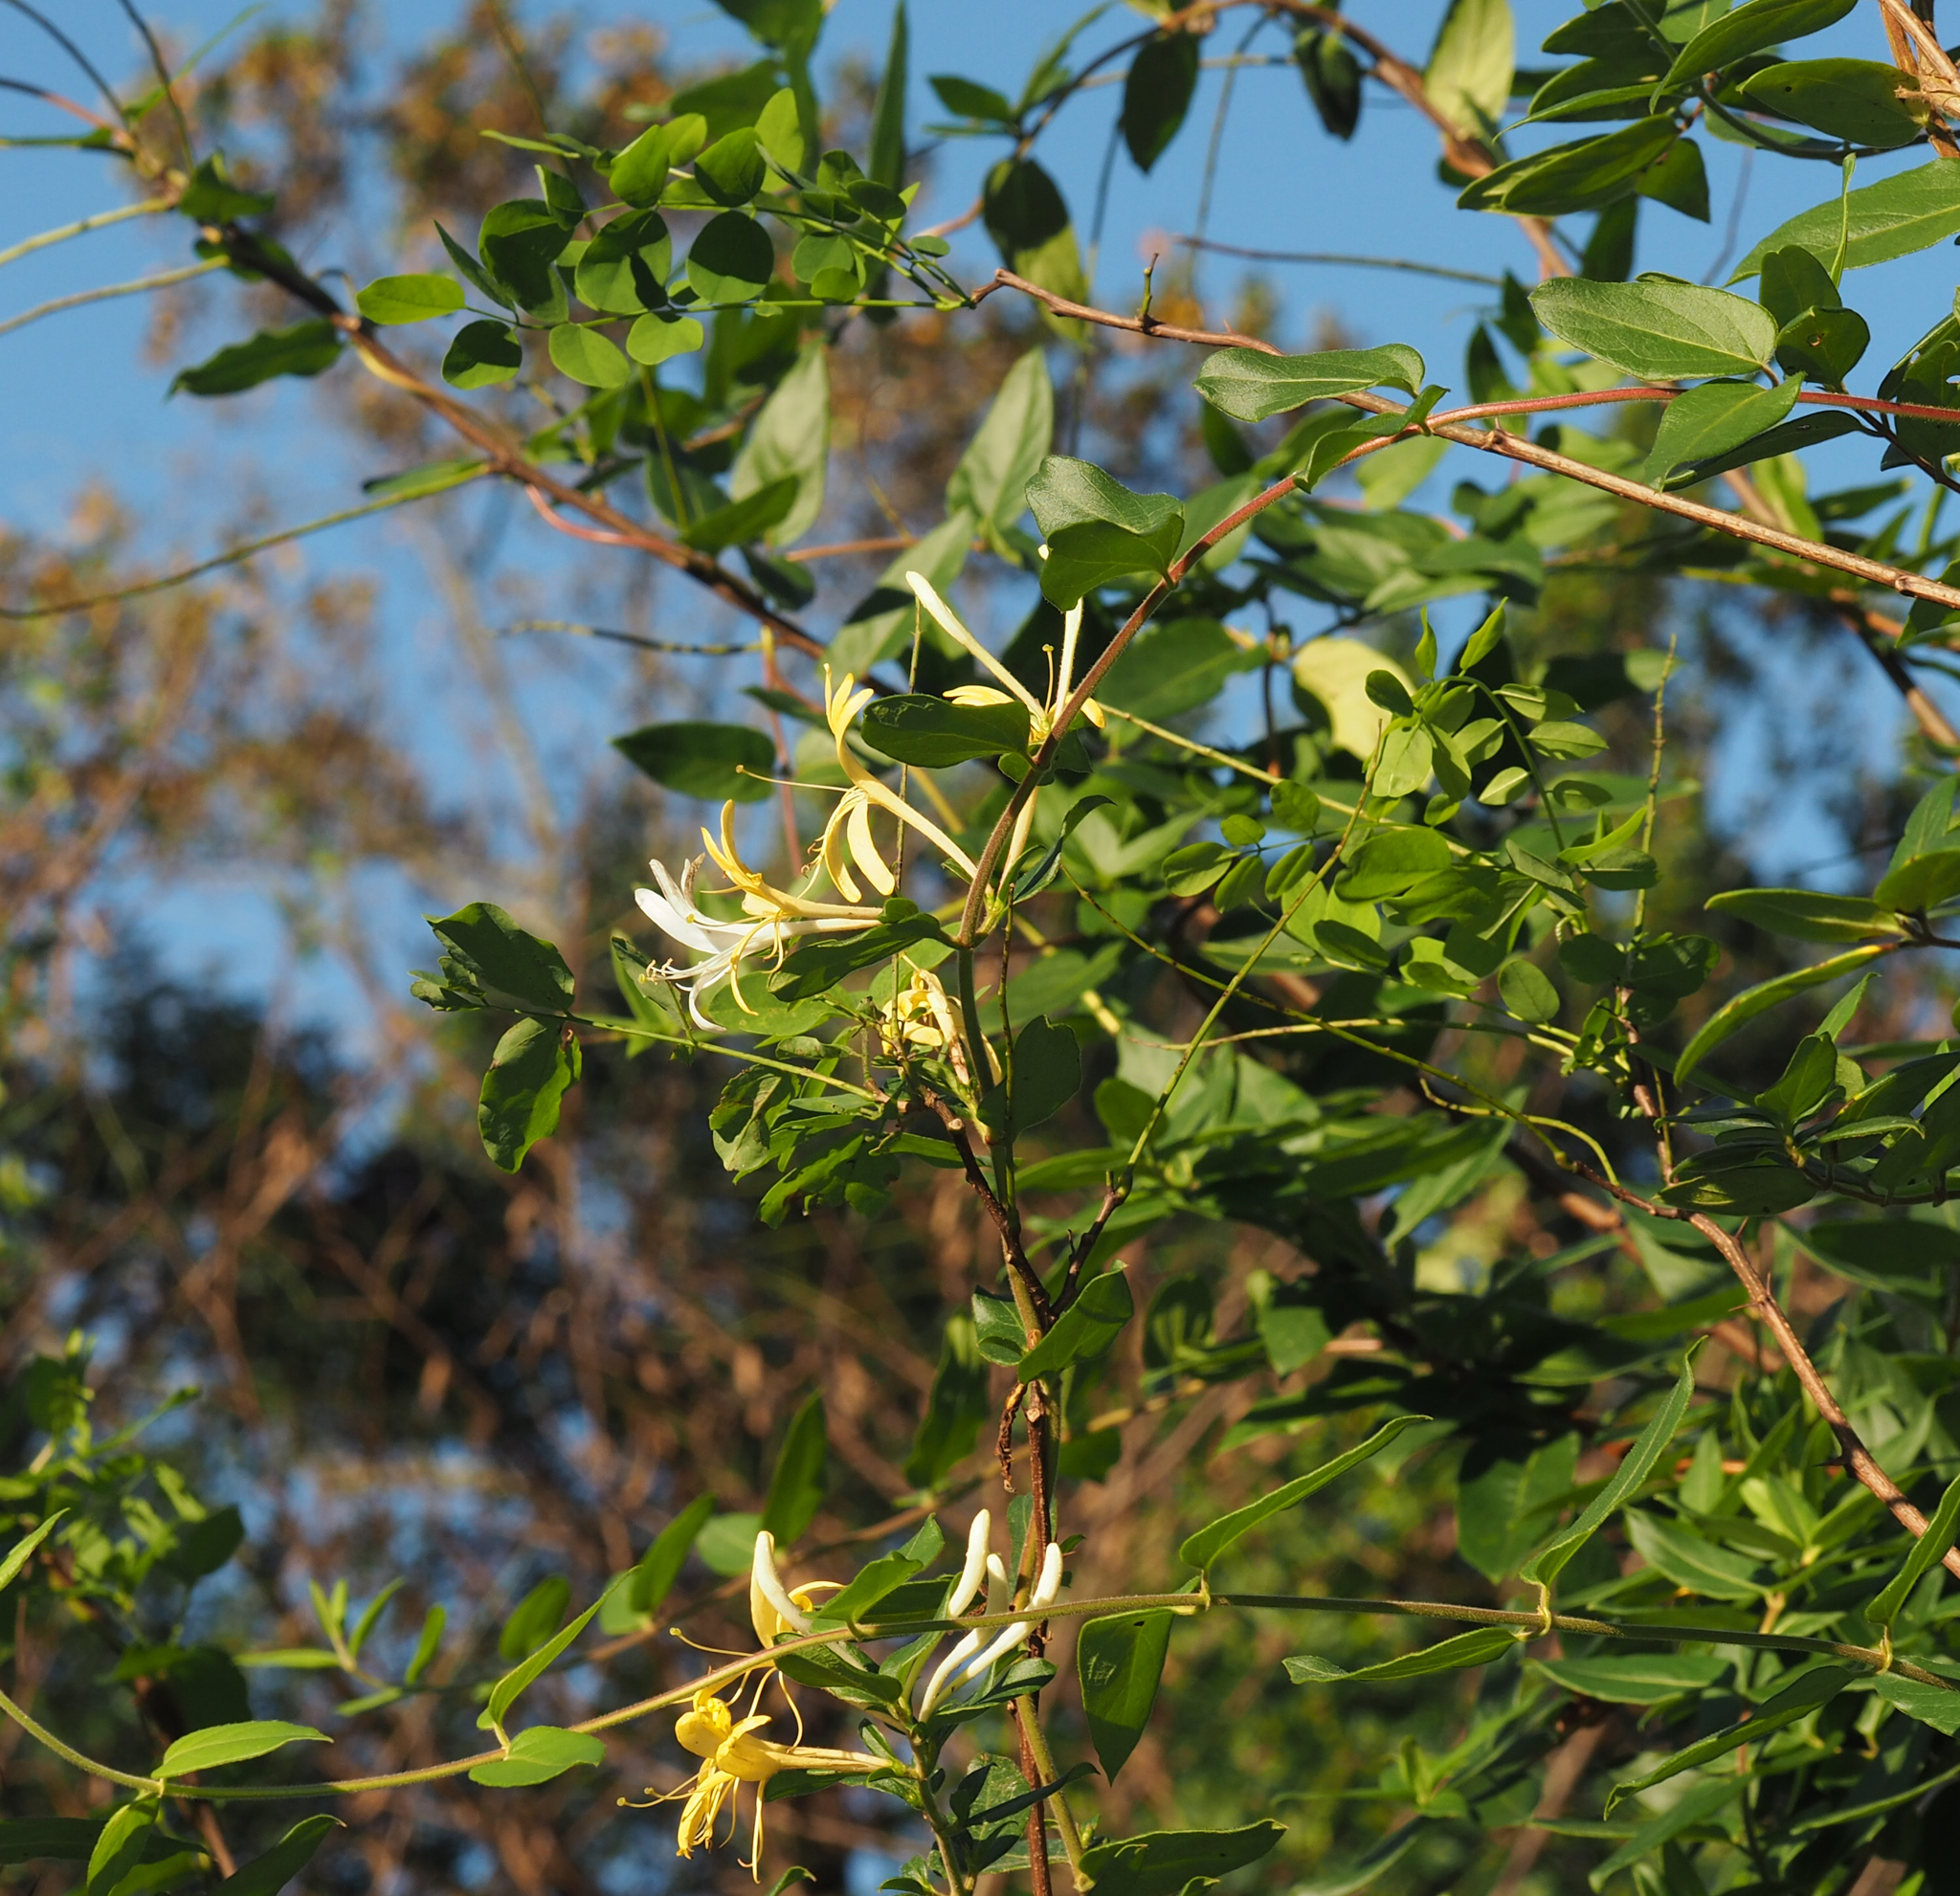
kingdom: Plantae
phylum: Tracheophyta
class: Magnoliopsida
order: Dipsacales
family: Caprifoliaceae
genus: Lonicera
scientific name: Lonicera japonica
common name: Japanese honeysuckle
